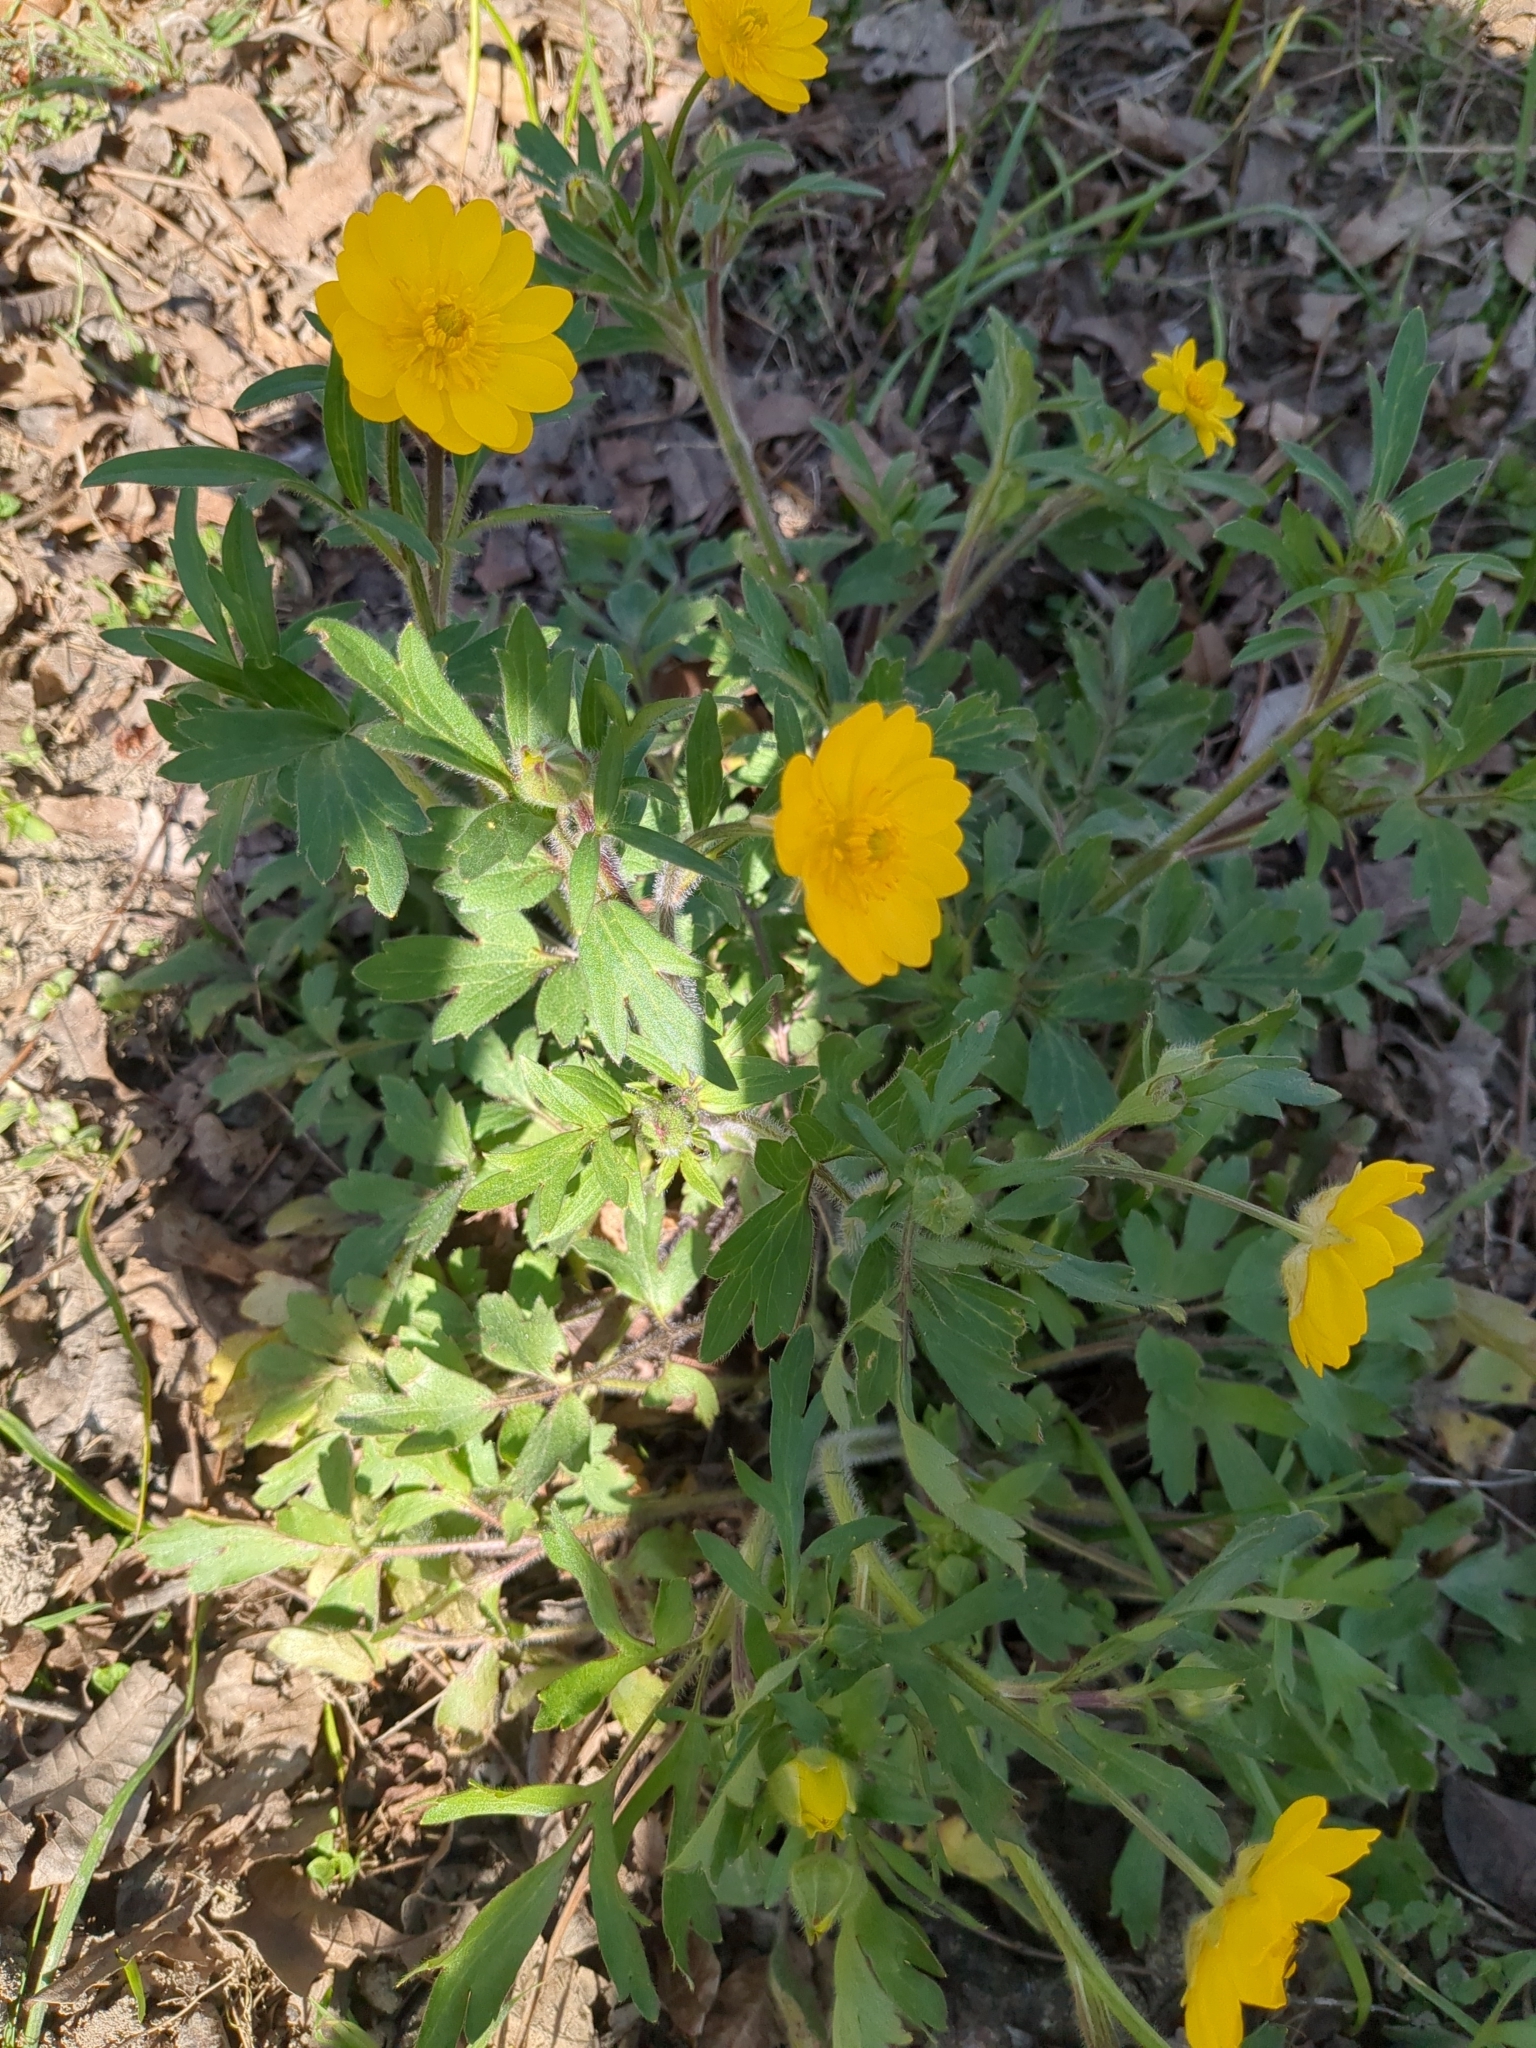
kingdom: Plantae
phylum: Tracheophyta
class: Magnoliopsida
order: Ranunculales
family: Ranunculaceae
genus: Ranunculus
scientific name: Ranunculus macranthus
